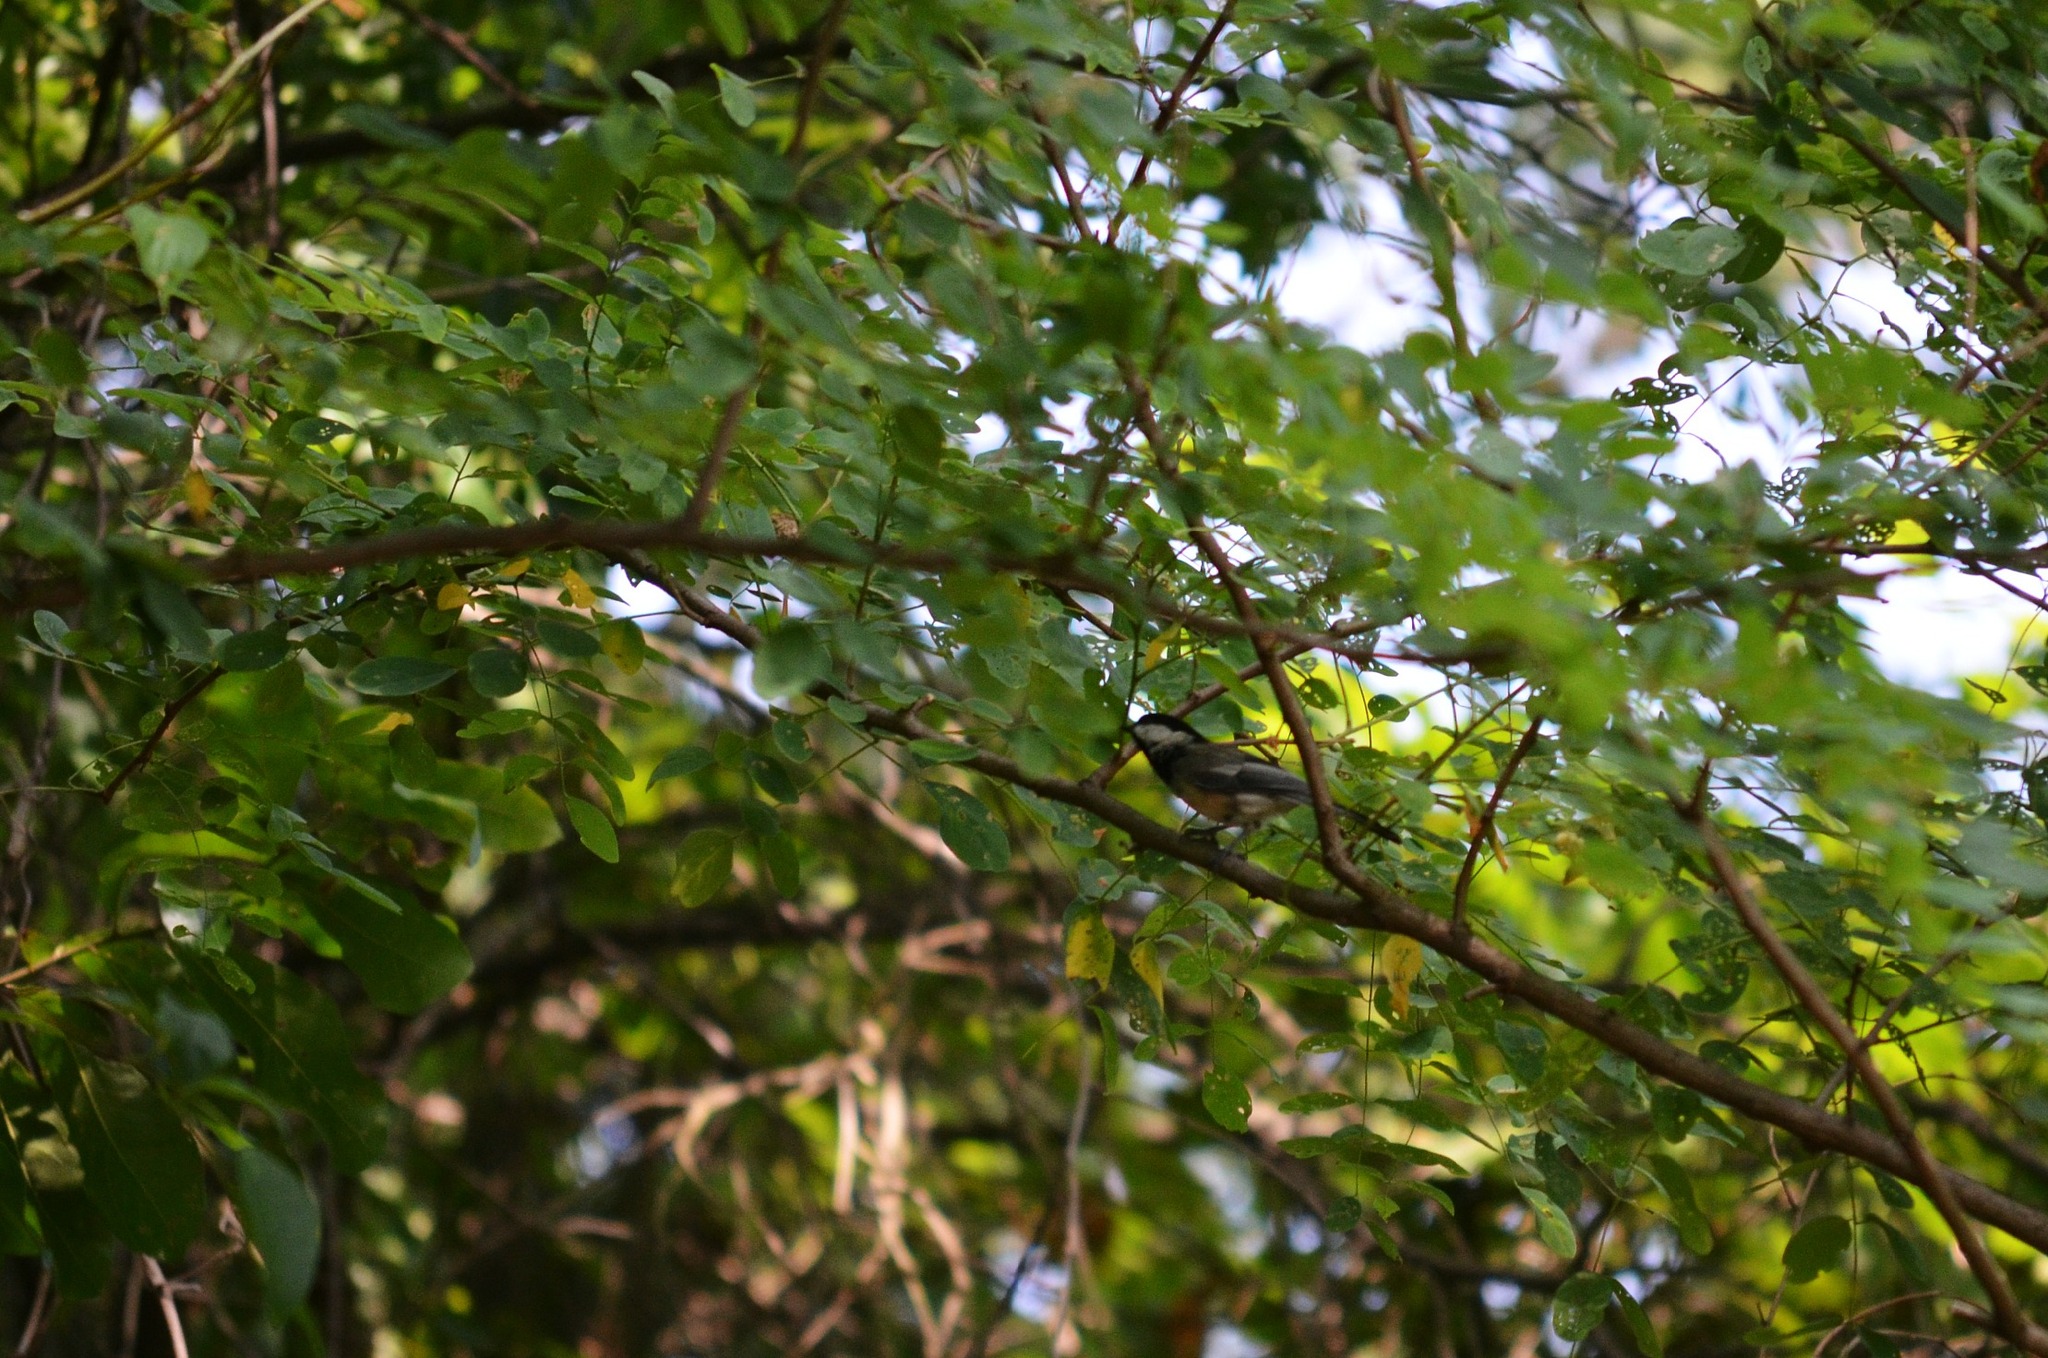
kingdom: Animalia
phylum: Chordata
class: Aves
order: Passeriformes
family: Paridae
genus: Poecile
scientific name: Poecile atricapillus
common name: Black-capped chickadee
